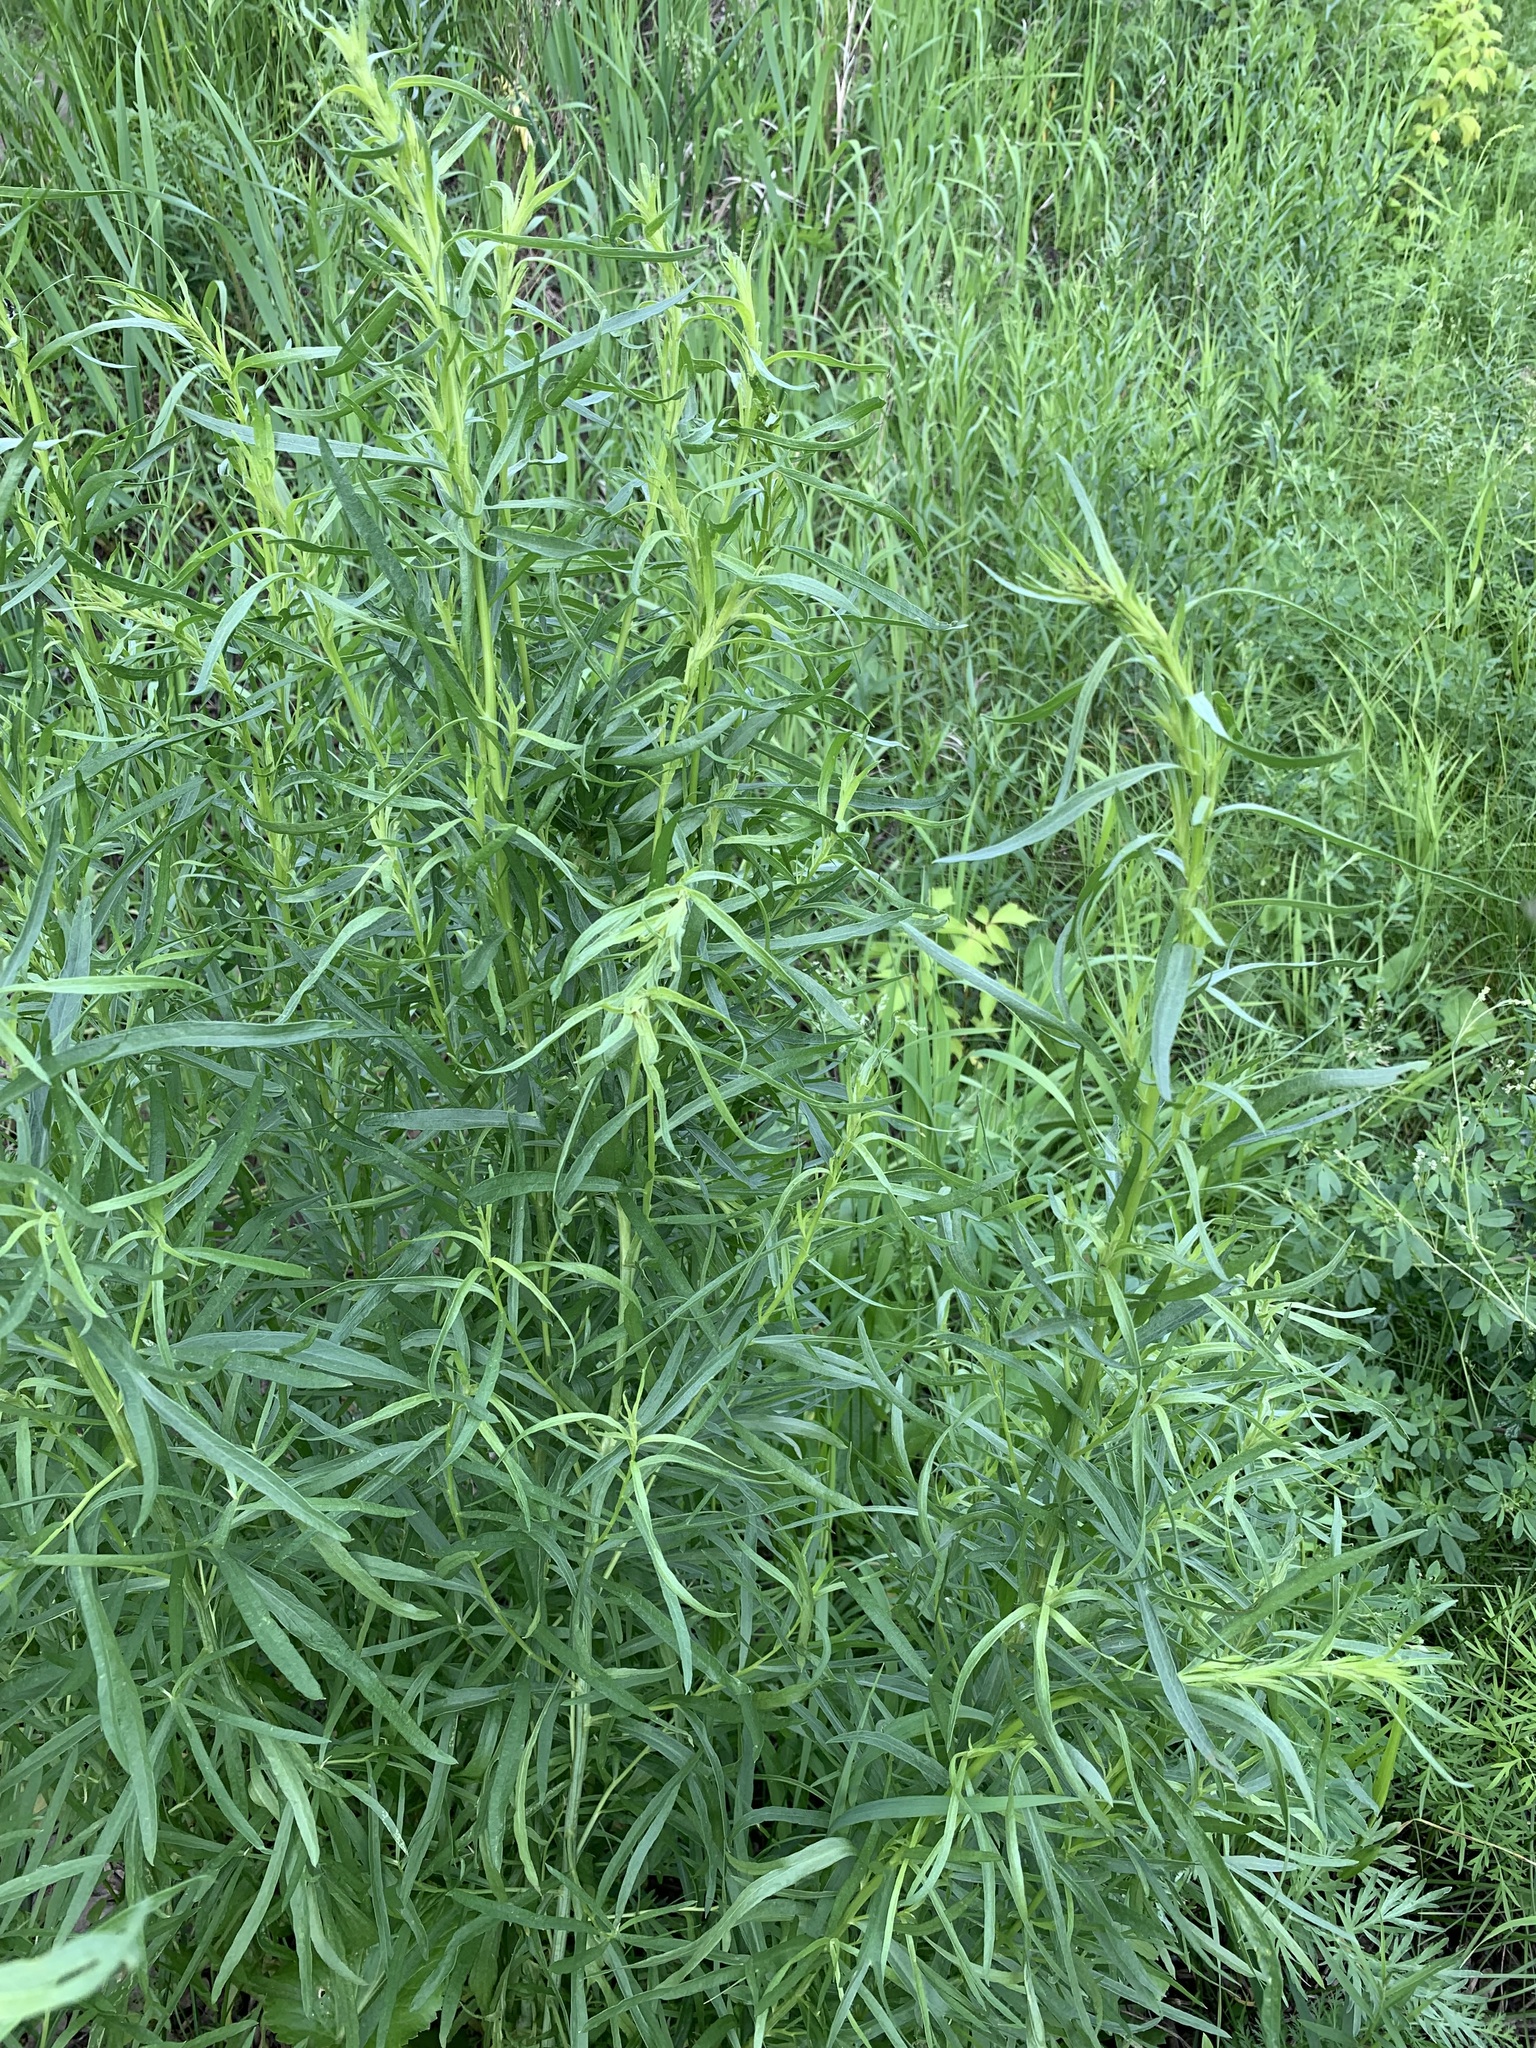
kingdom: Plantae
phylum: Tracheophyta
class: Magnoliopsida
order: Asterales
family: Asteraceae
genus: Artemisia
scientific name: Artemisia dracunculus
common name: Tarragon
